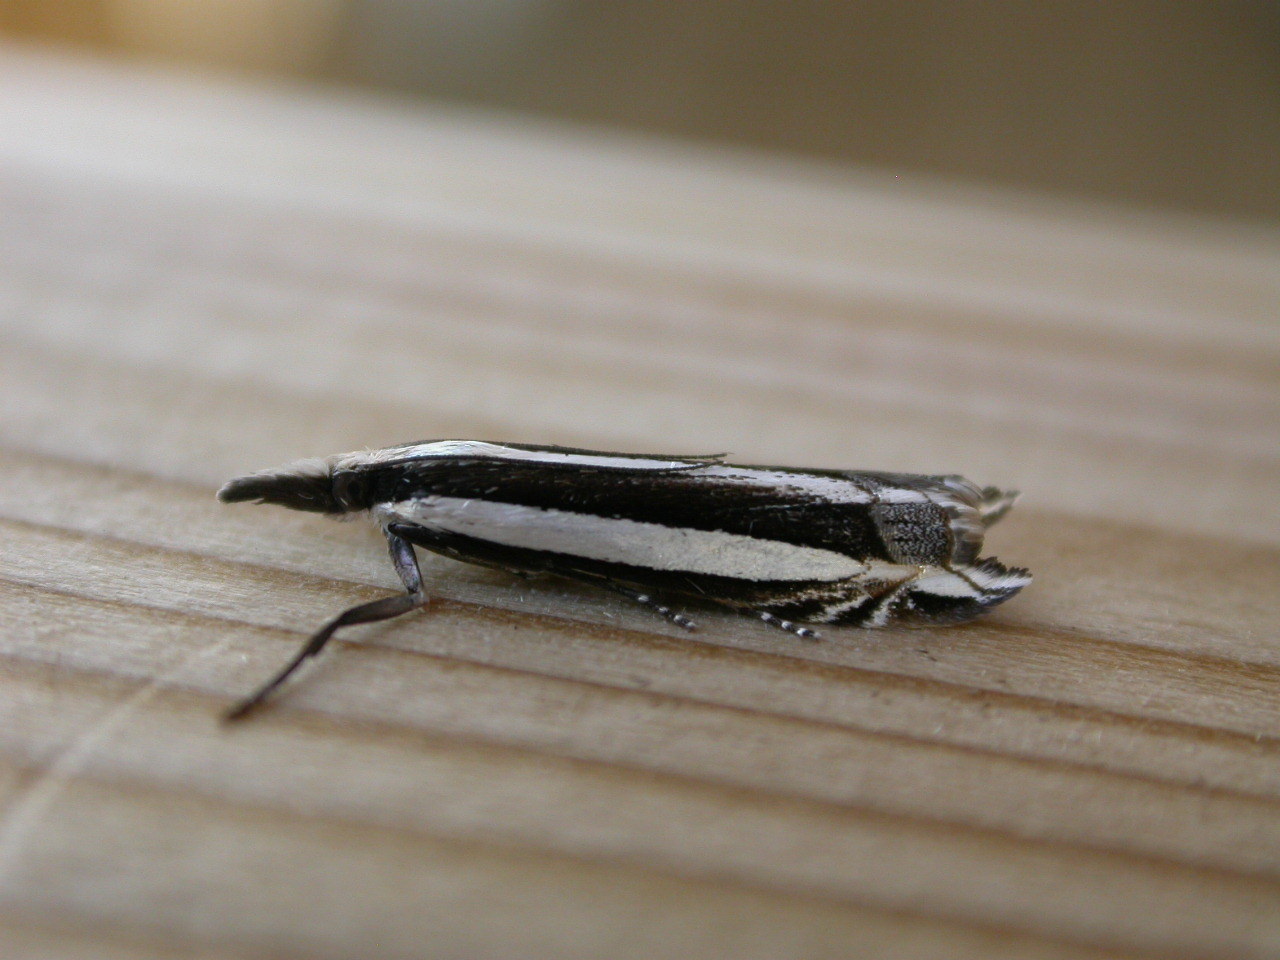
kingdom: Animalia
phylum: Arthropoda
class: Insecta
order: Lepidoptera
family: Crambidae
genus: Angustalius
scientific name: Angustalius malacellus
